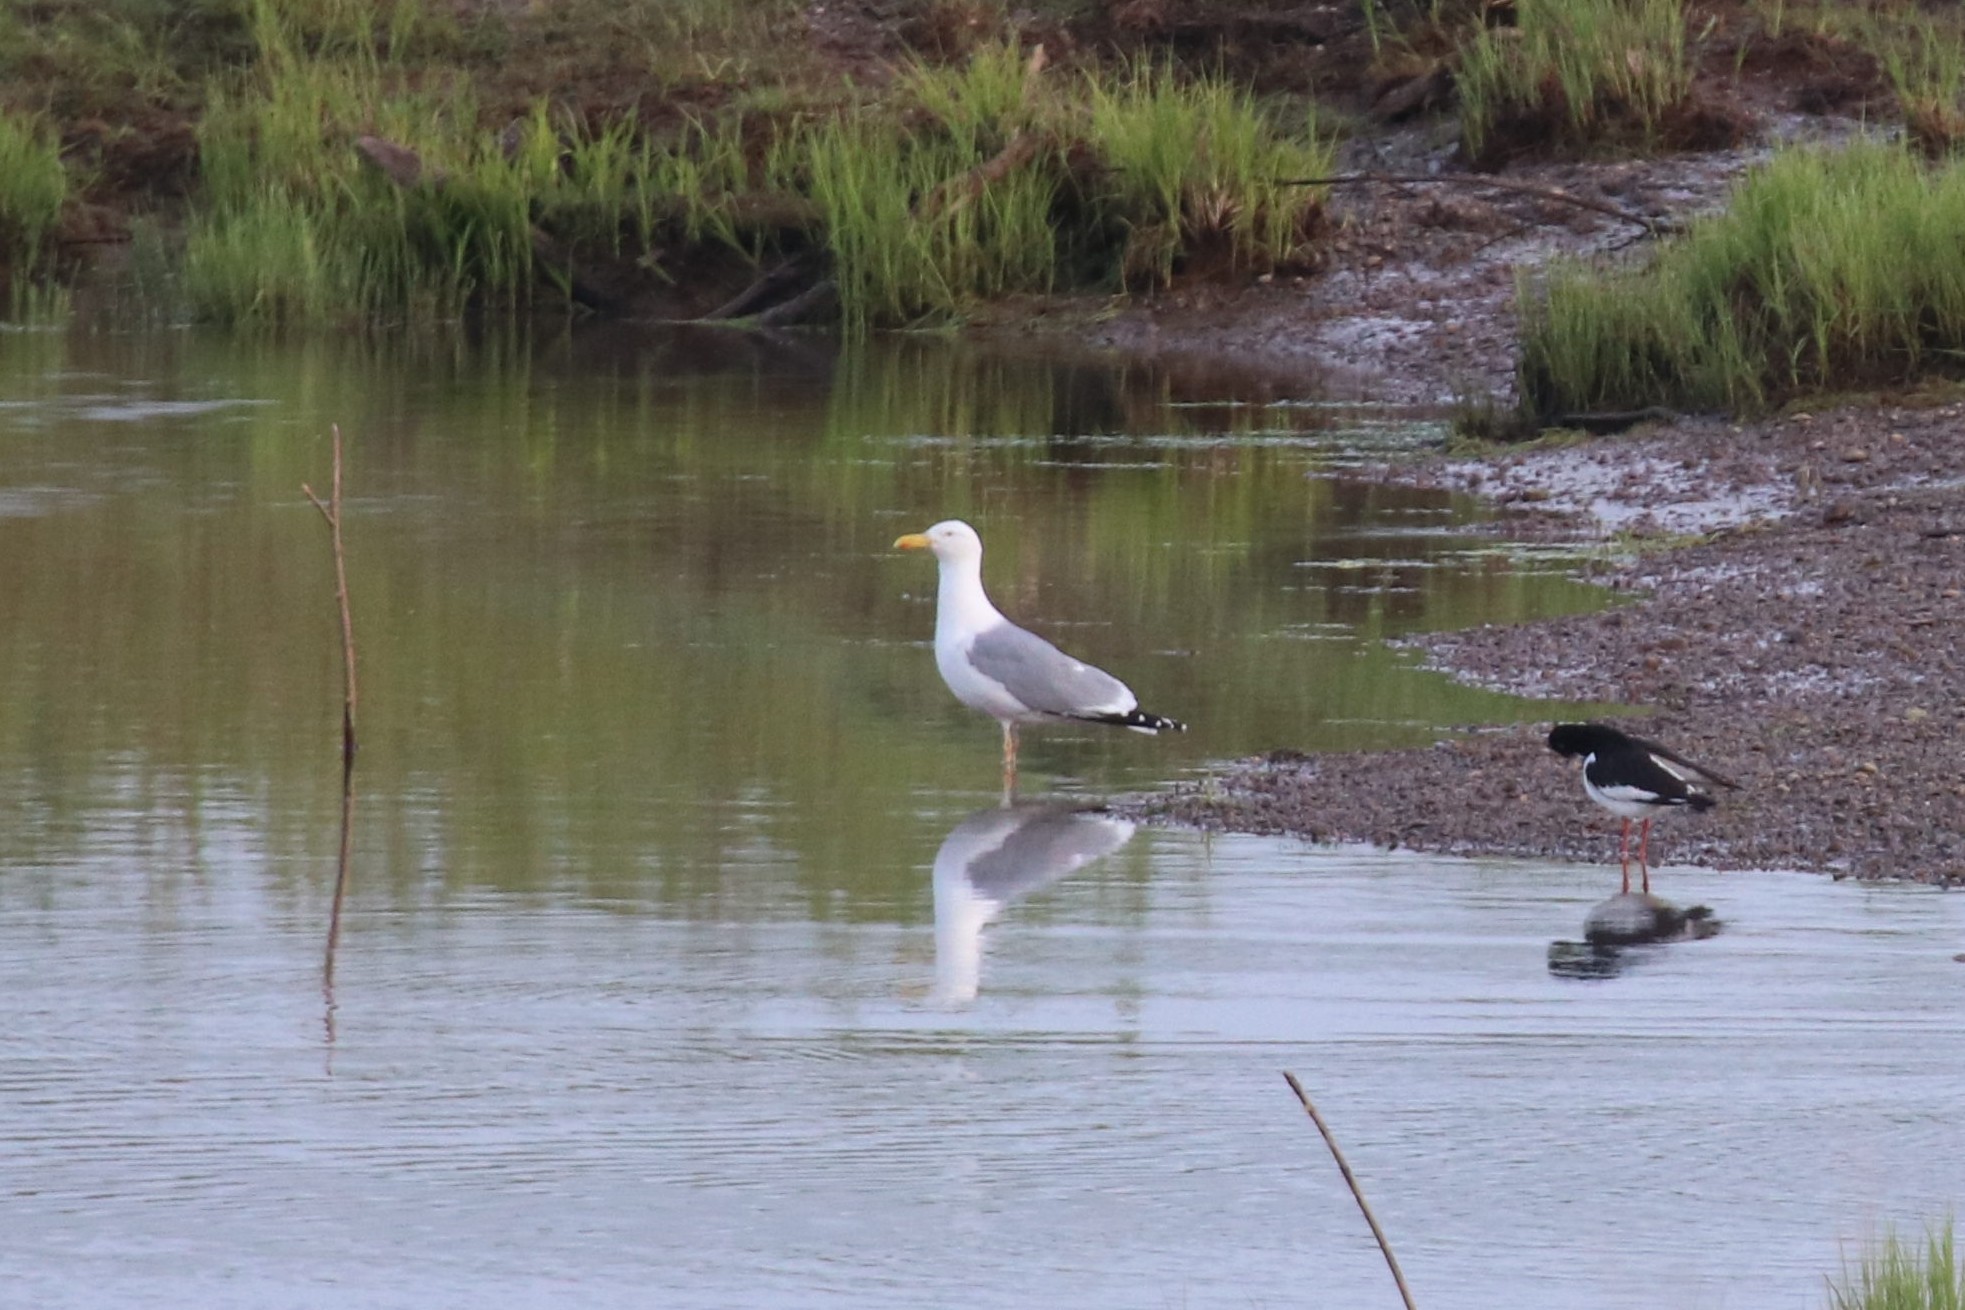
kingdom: Animalia
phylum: Chordata
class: Aves
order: Charadriiformes
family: Laridae
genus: Larus
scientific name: Larus cachinnans
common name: Caspian gull
